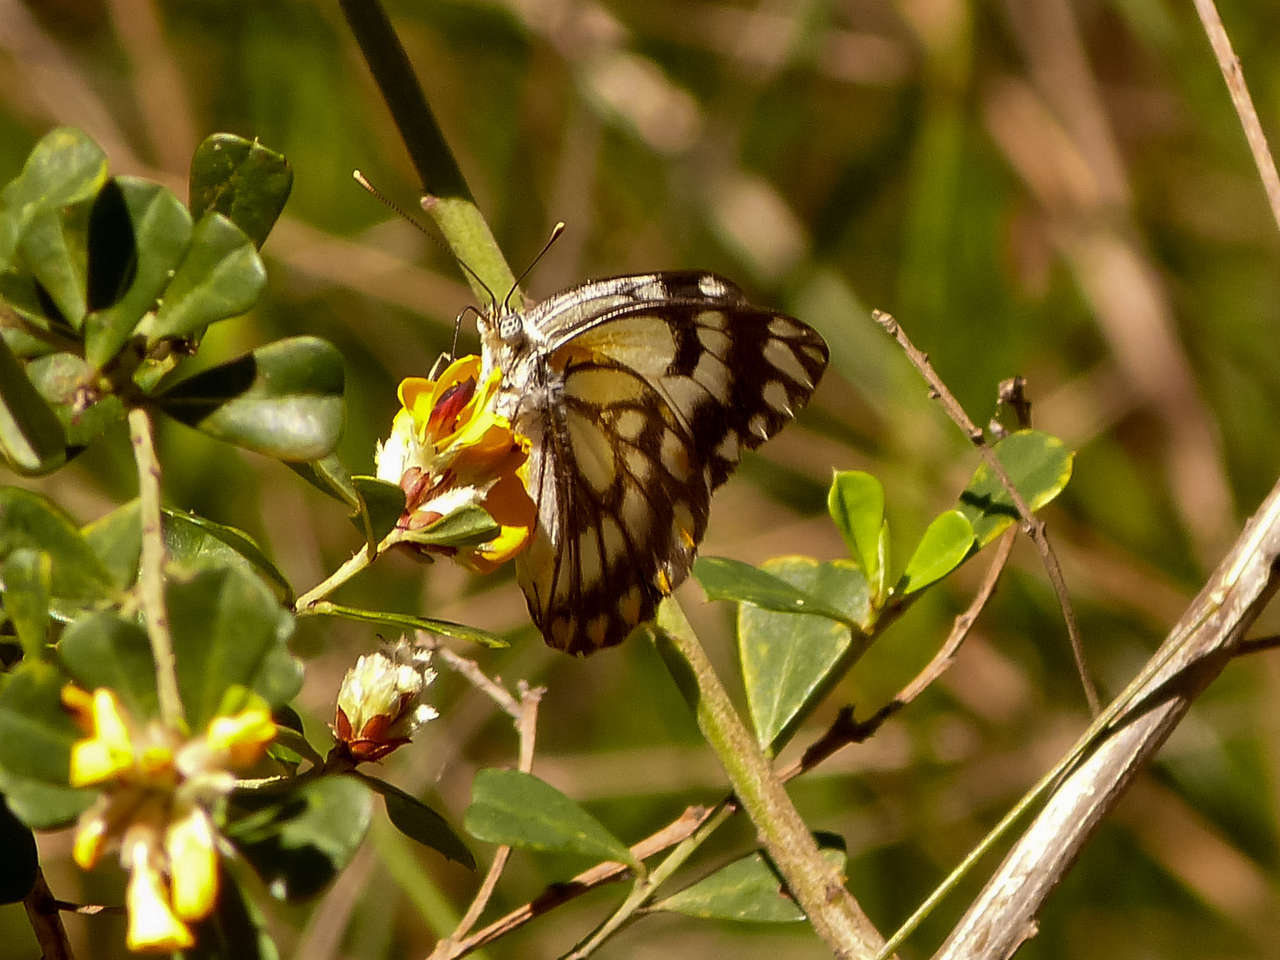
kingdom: Animalia
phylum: Arthropoda
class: Insecta
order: Lepidoptera
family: Pieridae
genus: Belenois
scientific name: Belenois java
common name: Caper white
